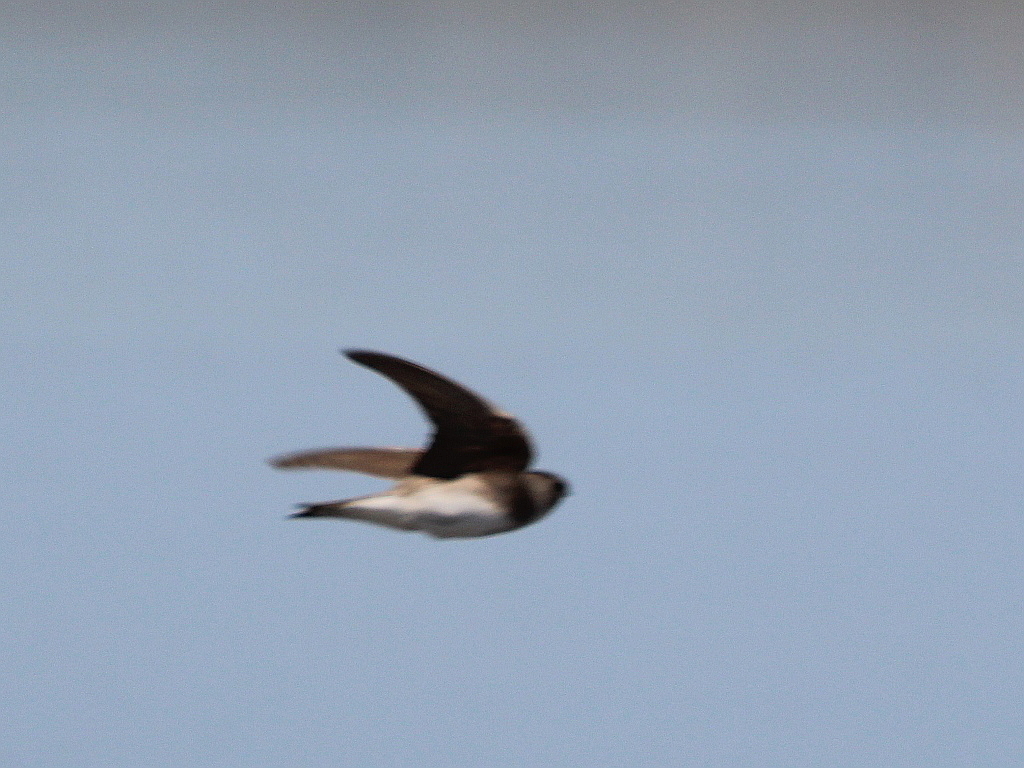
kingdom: Animalia
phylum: Chordata
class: Aves
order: Passeriformes
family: Hirundinidae
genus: Riparia
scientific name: Riparia riparia
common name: Sand martin
